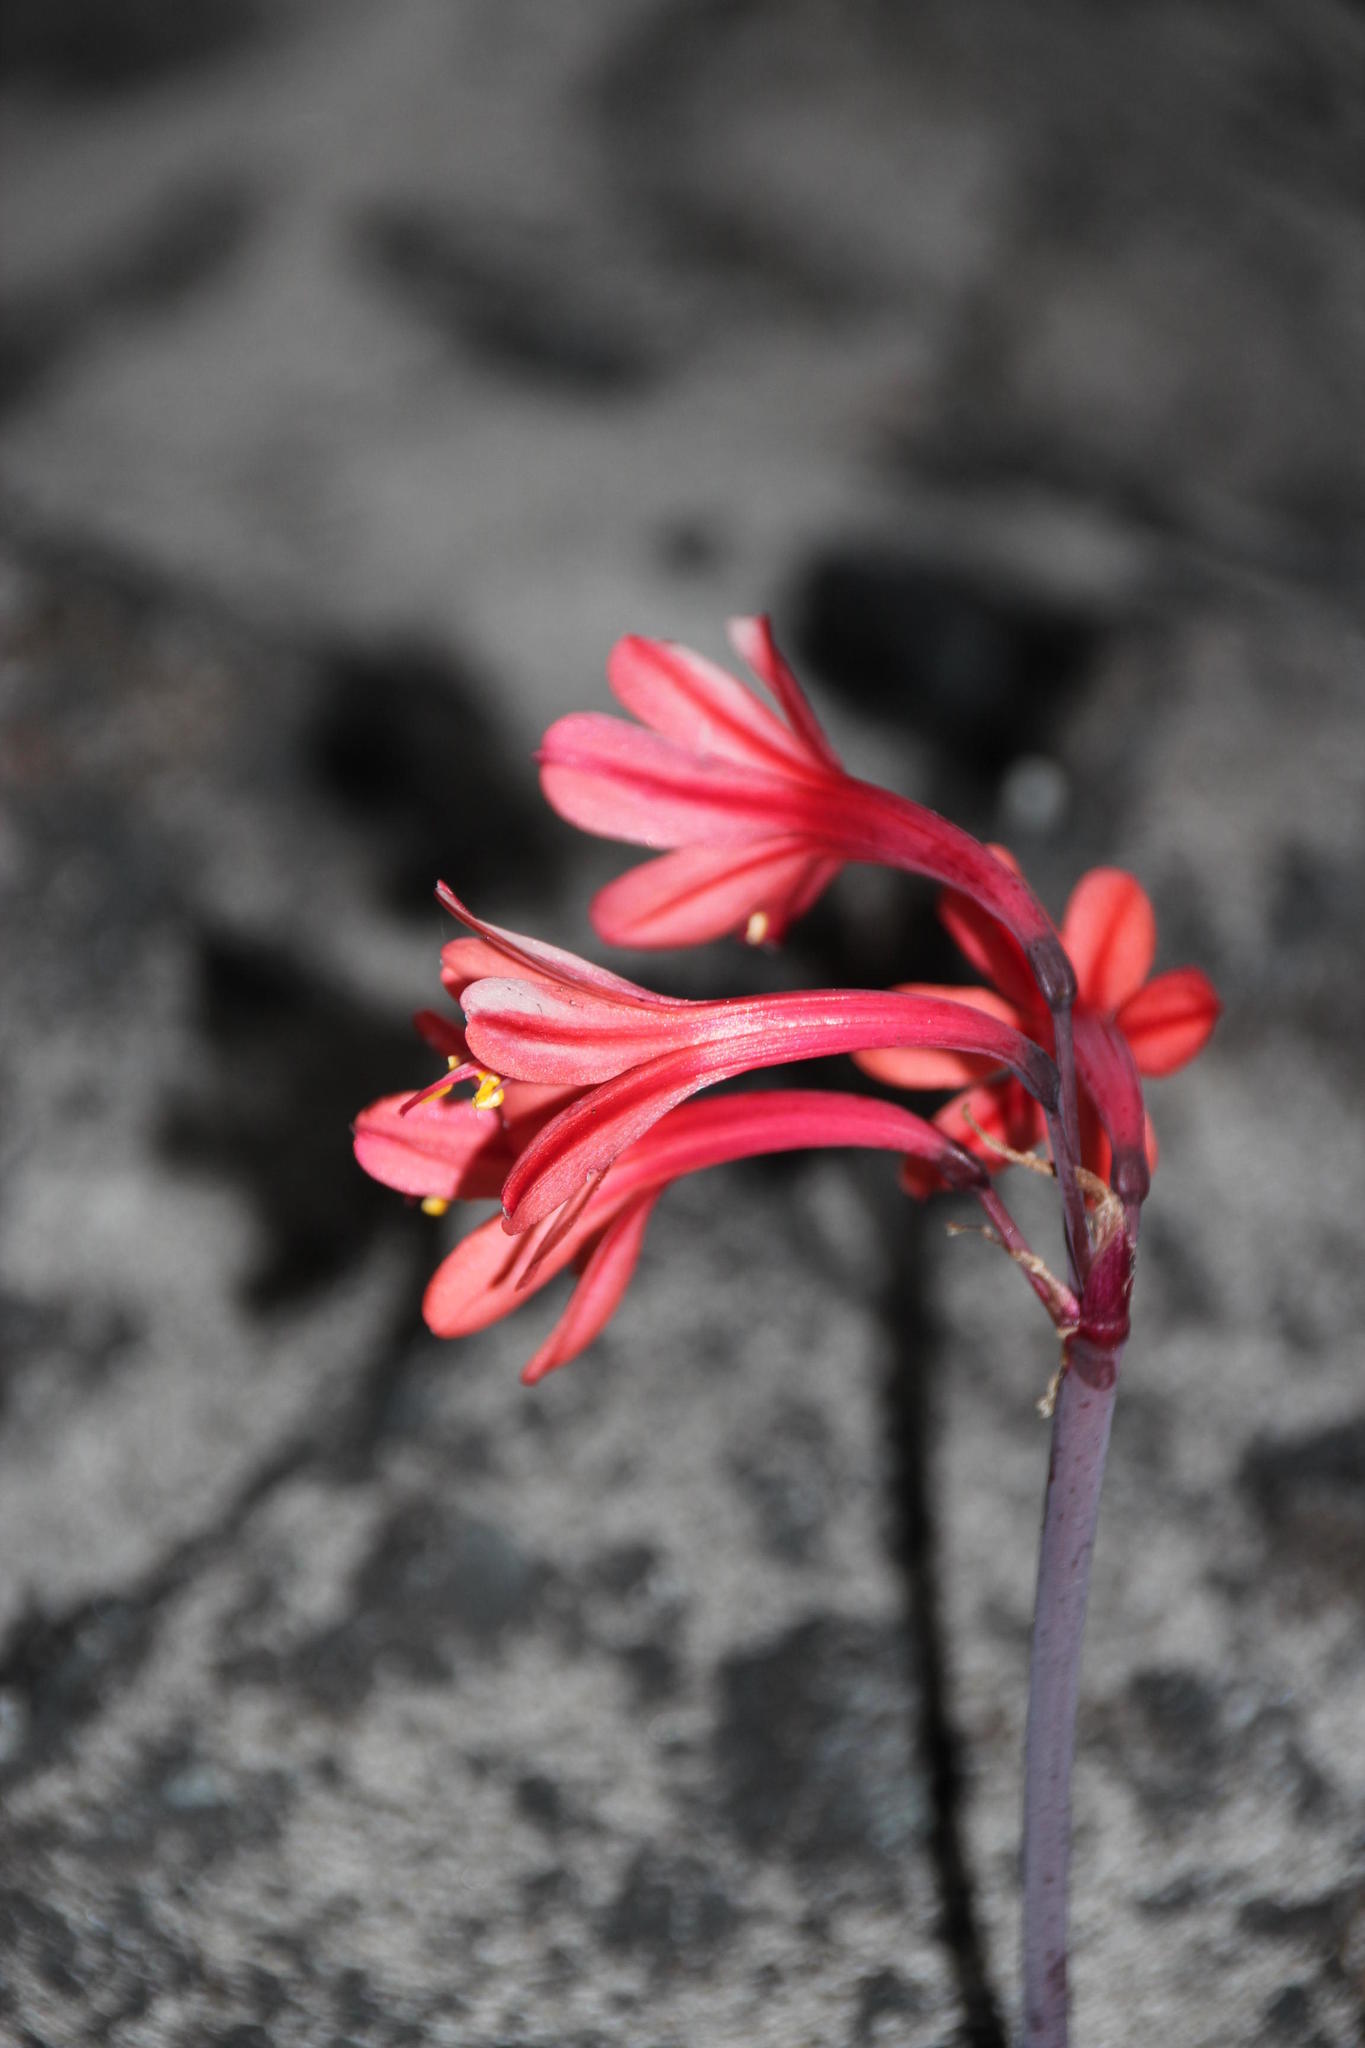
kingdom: Plantae
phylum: Tracheophyta
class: Liliopsida
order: Asparagales
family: Amaryllidaceae
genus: Cyrtanthus
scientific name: Cyrtanthus ventricosus
